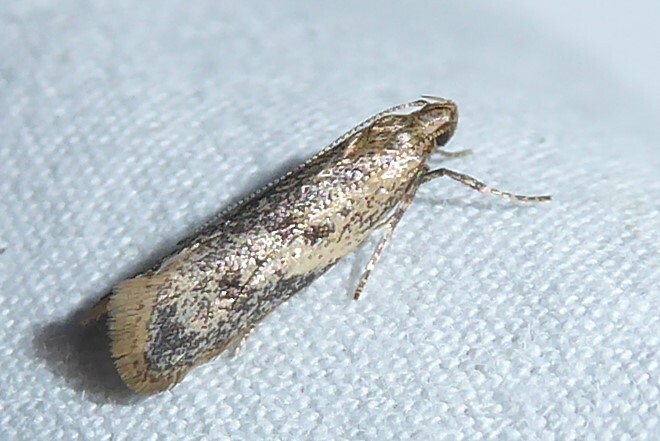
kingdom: Animalia
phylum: Arthropoda
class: Insecta
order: Lepidoptera
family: Oecophoridae
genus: Gymnobathra
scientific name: Gymnobathra tholodella
